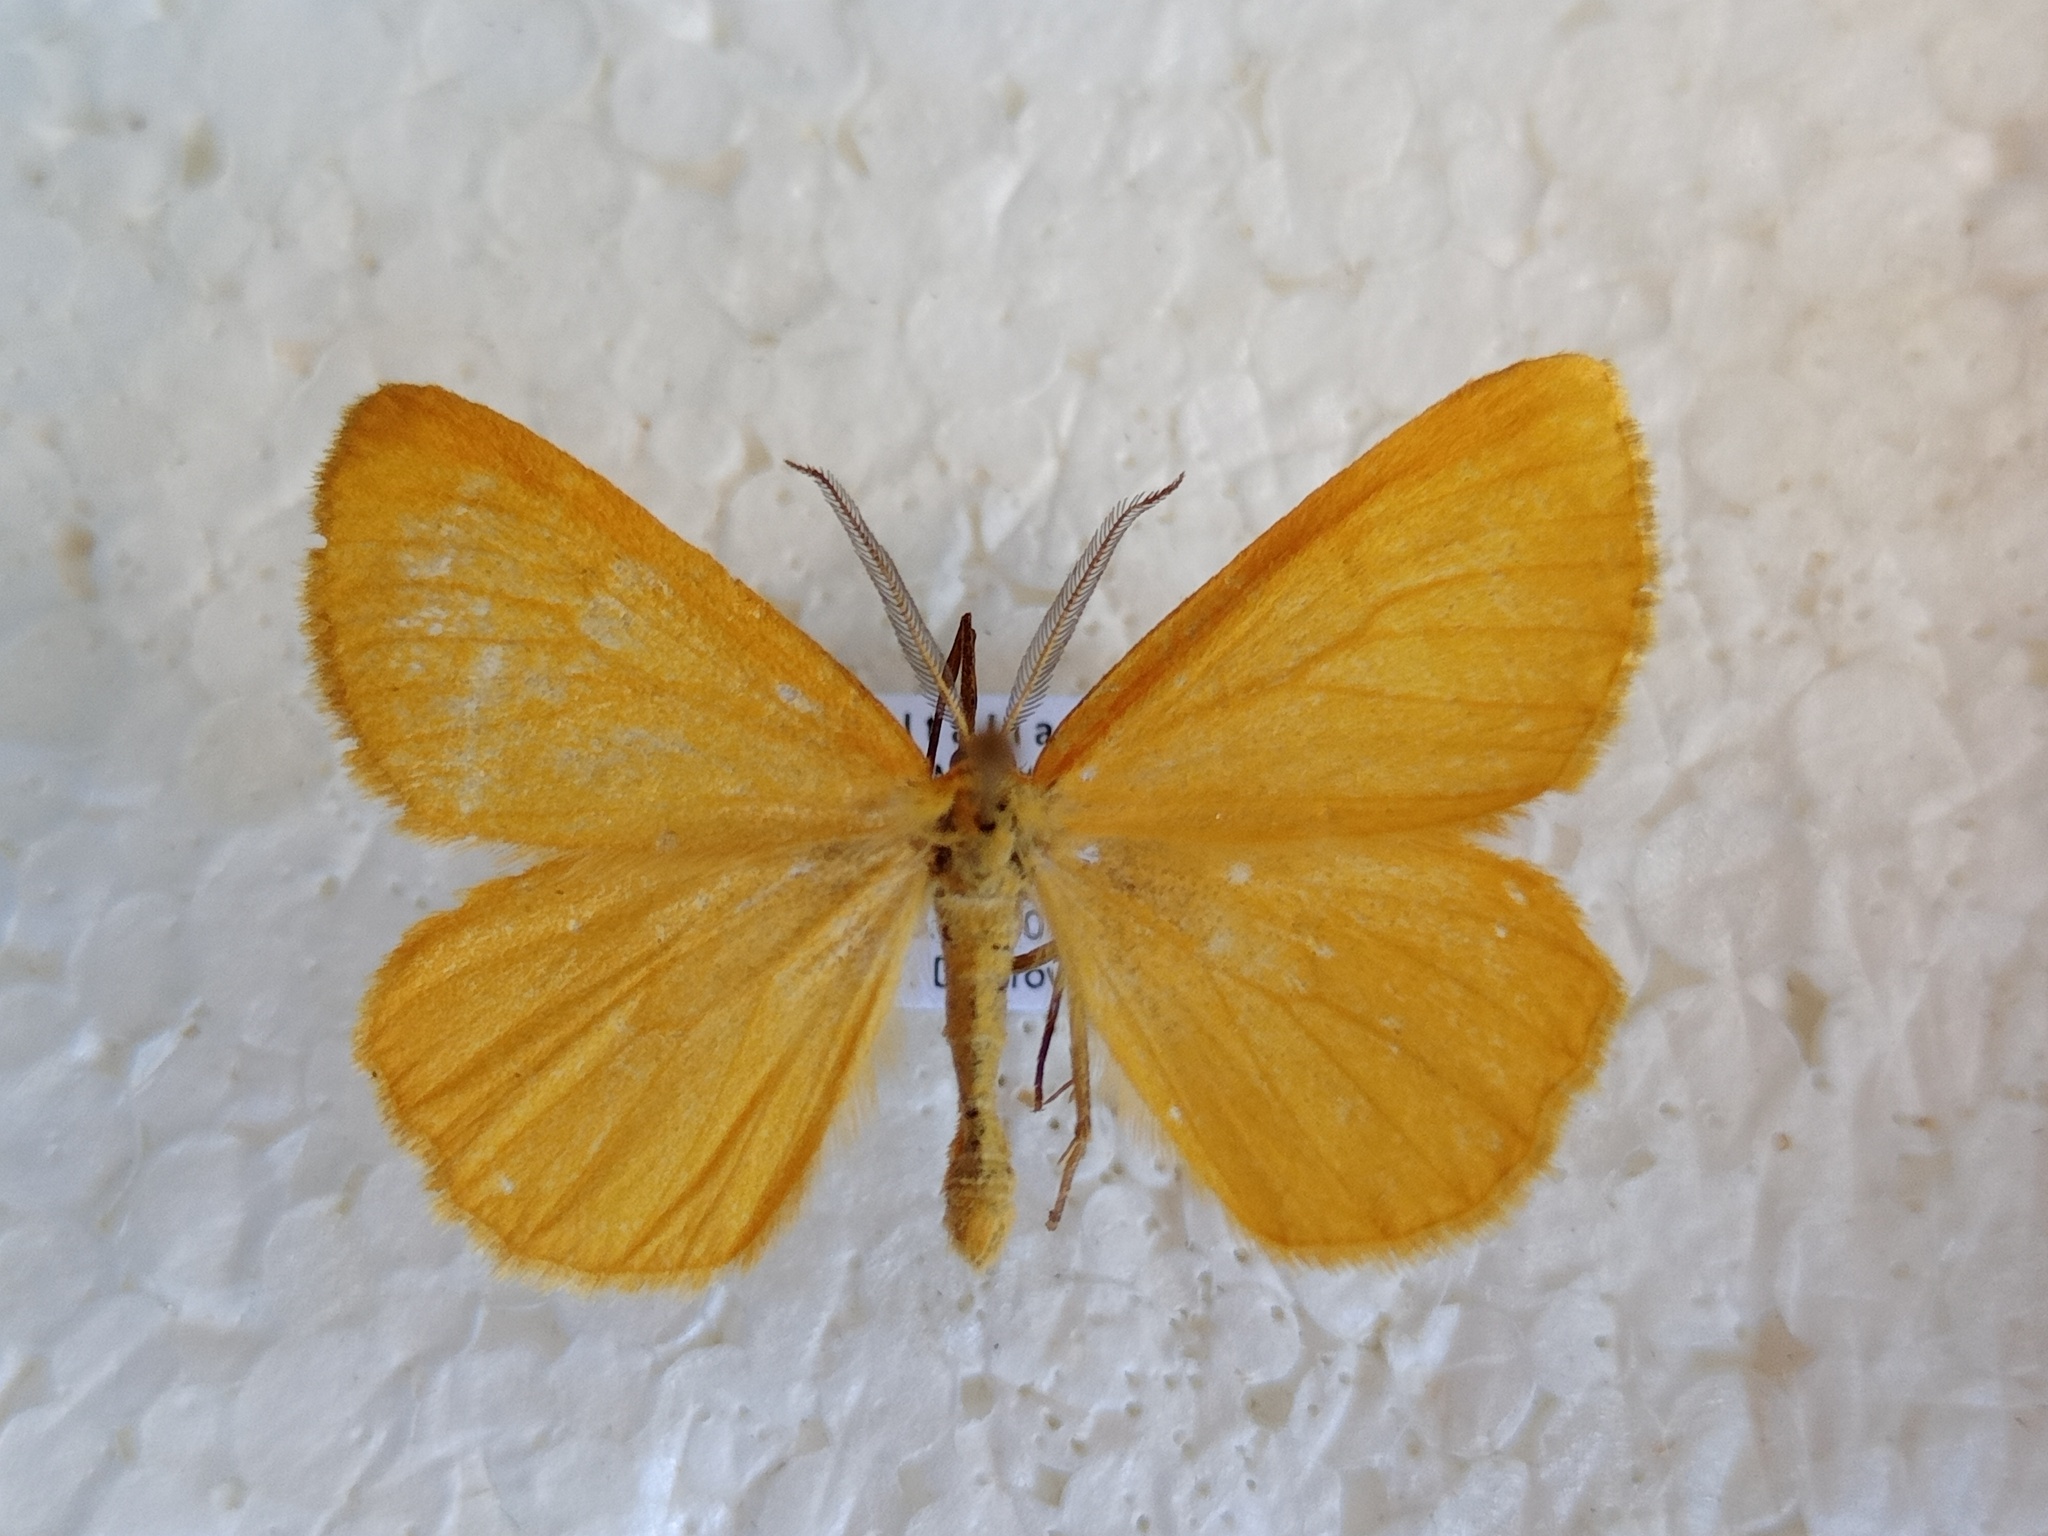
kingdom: Animalia
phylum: Arthropoda
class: Insecta
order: Lepidoptera
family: Geometridae
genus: Crocota
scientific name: Crocota tinctaria
